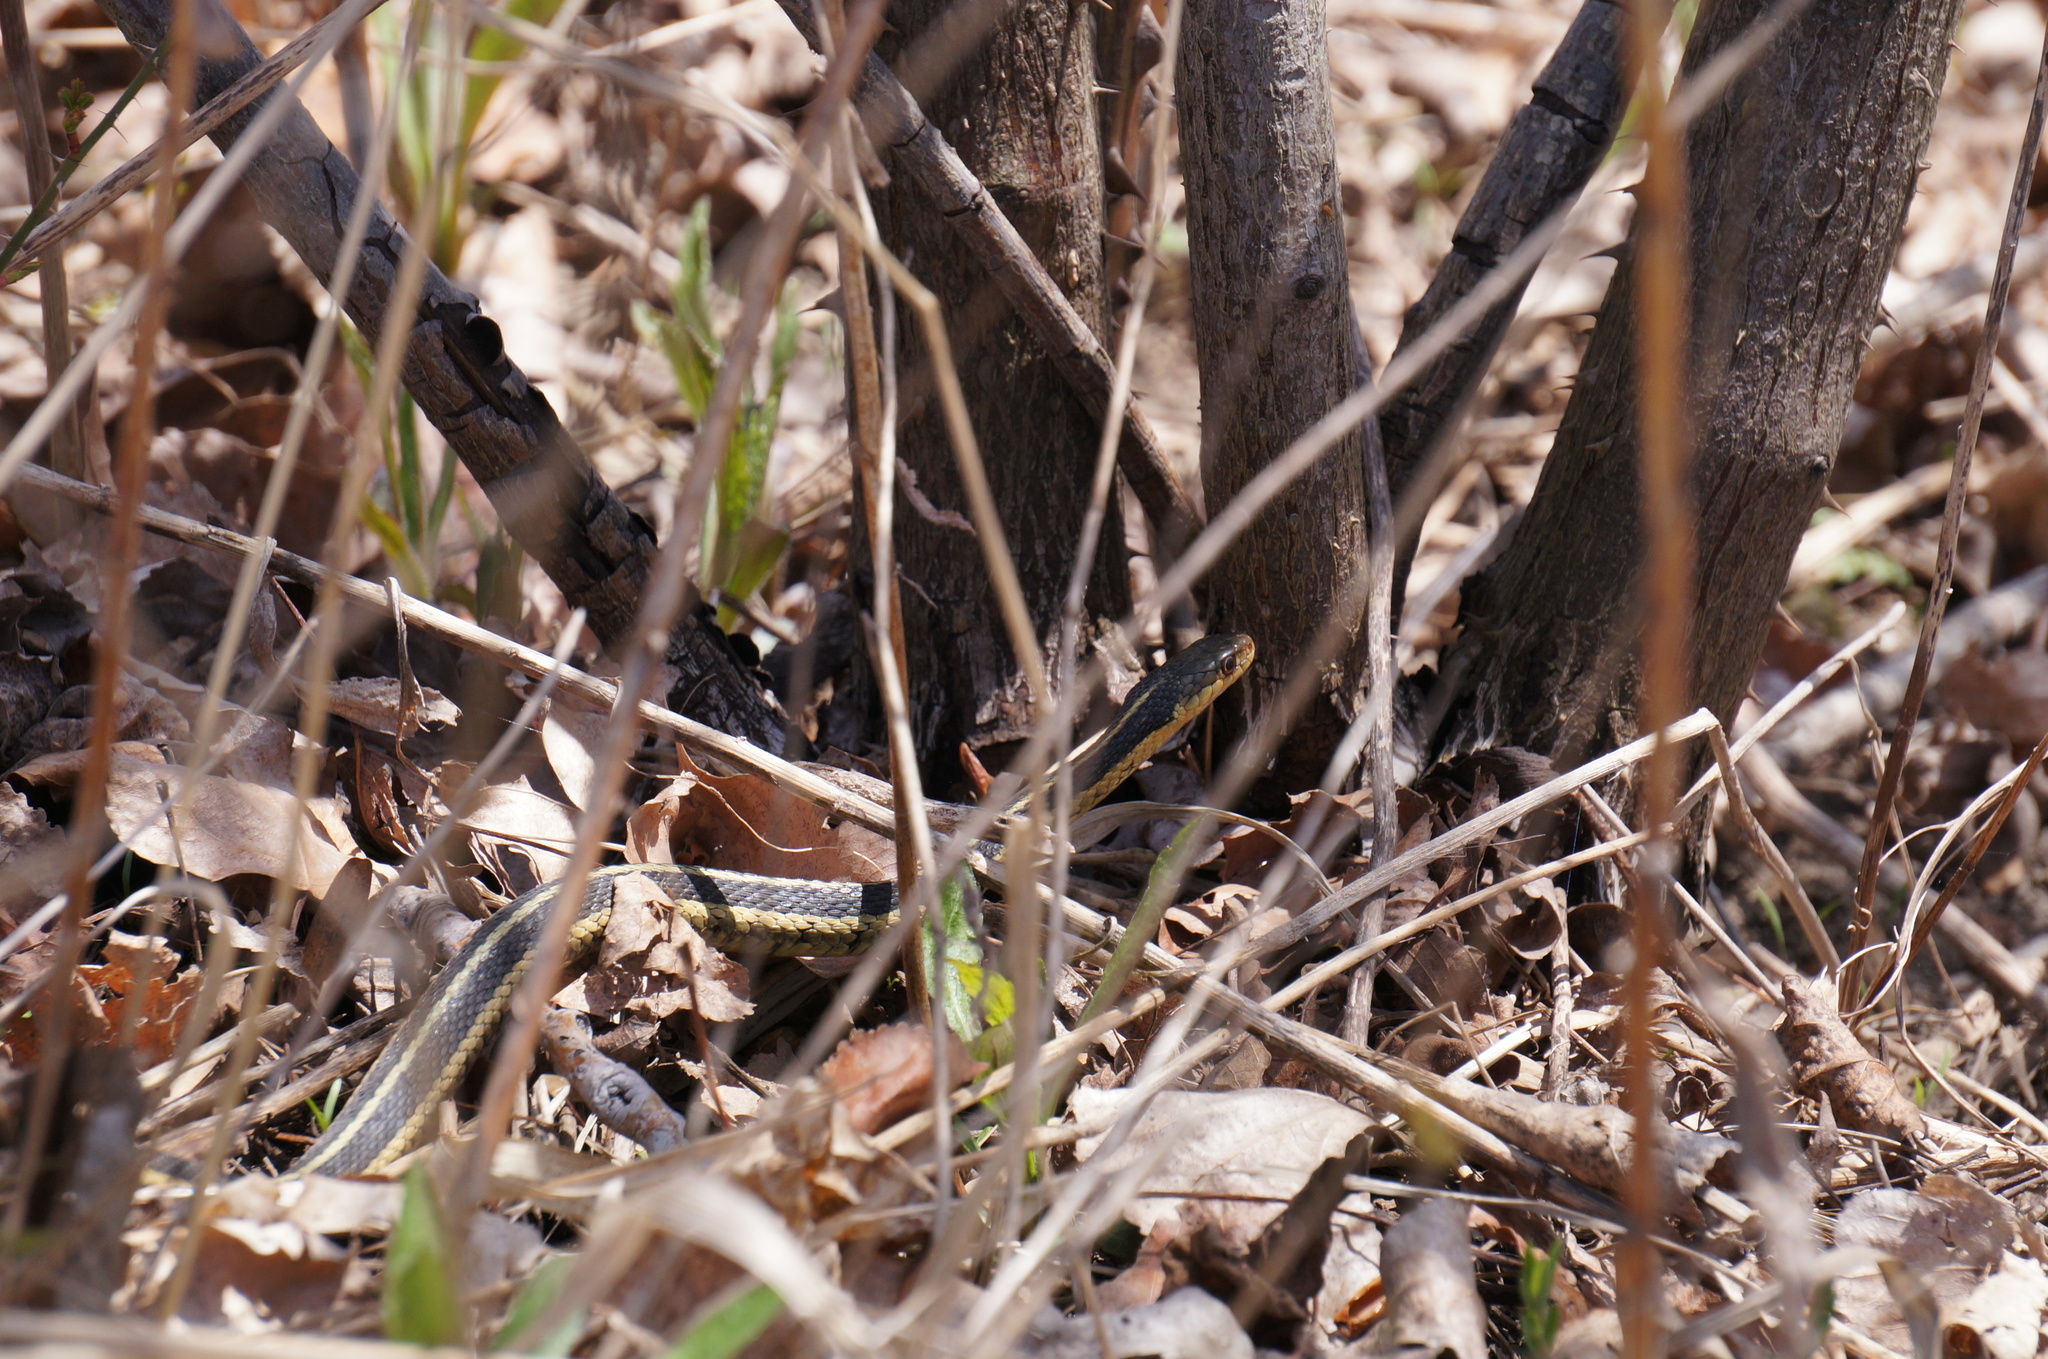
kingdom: Animalia
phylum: Chordata
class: Squamata
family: Colubridae
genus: Thamnophis
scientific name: Thamnophis sirtalis
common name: Common garter snake
